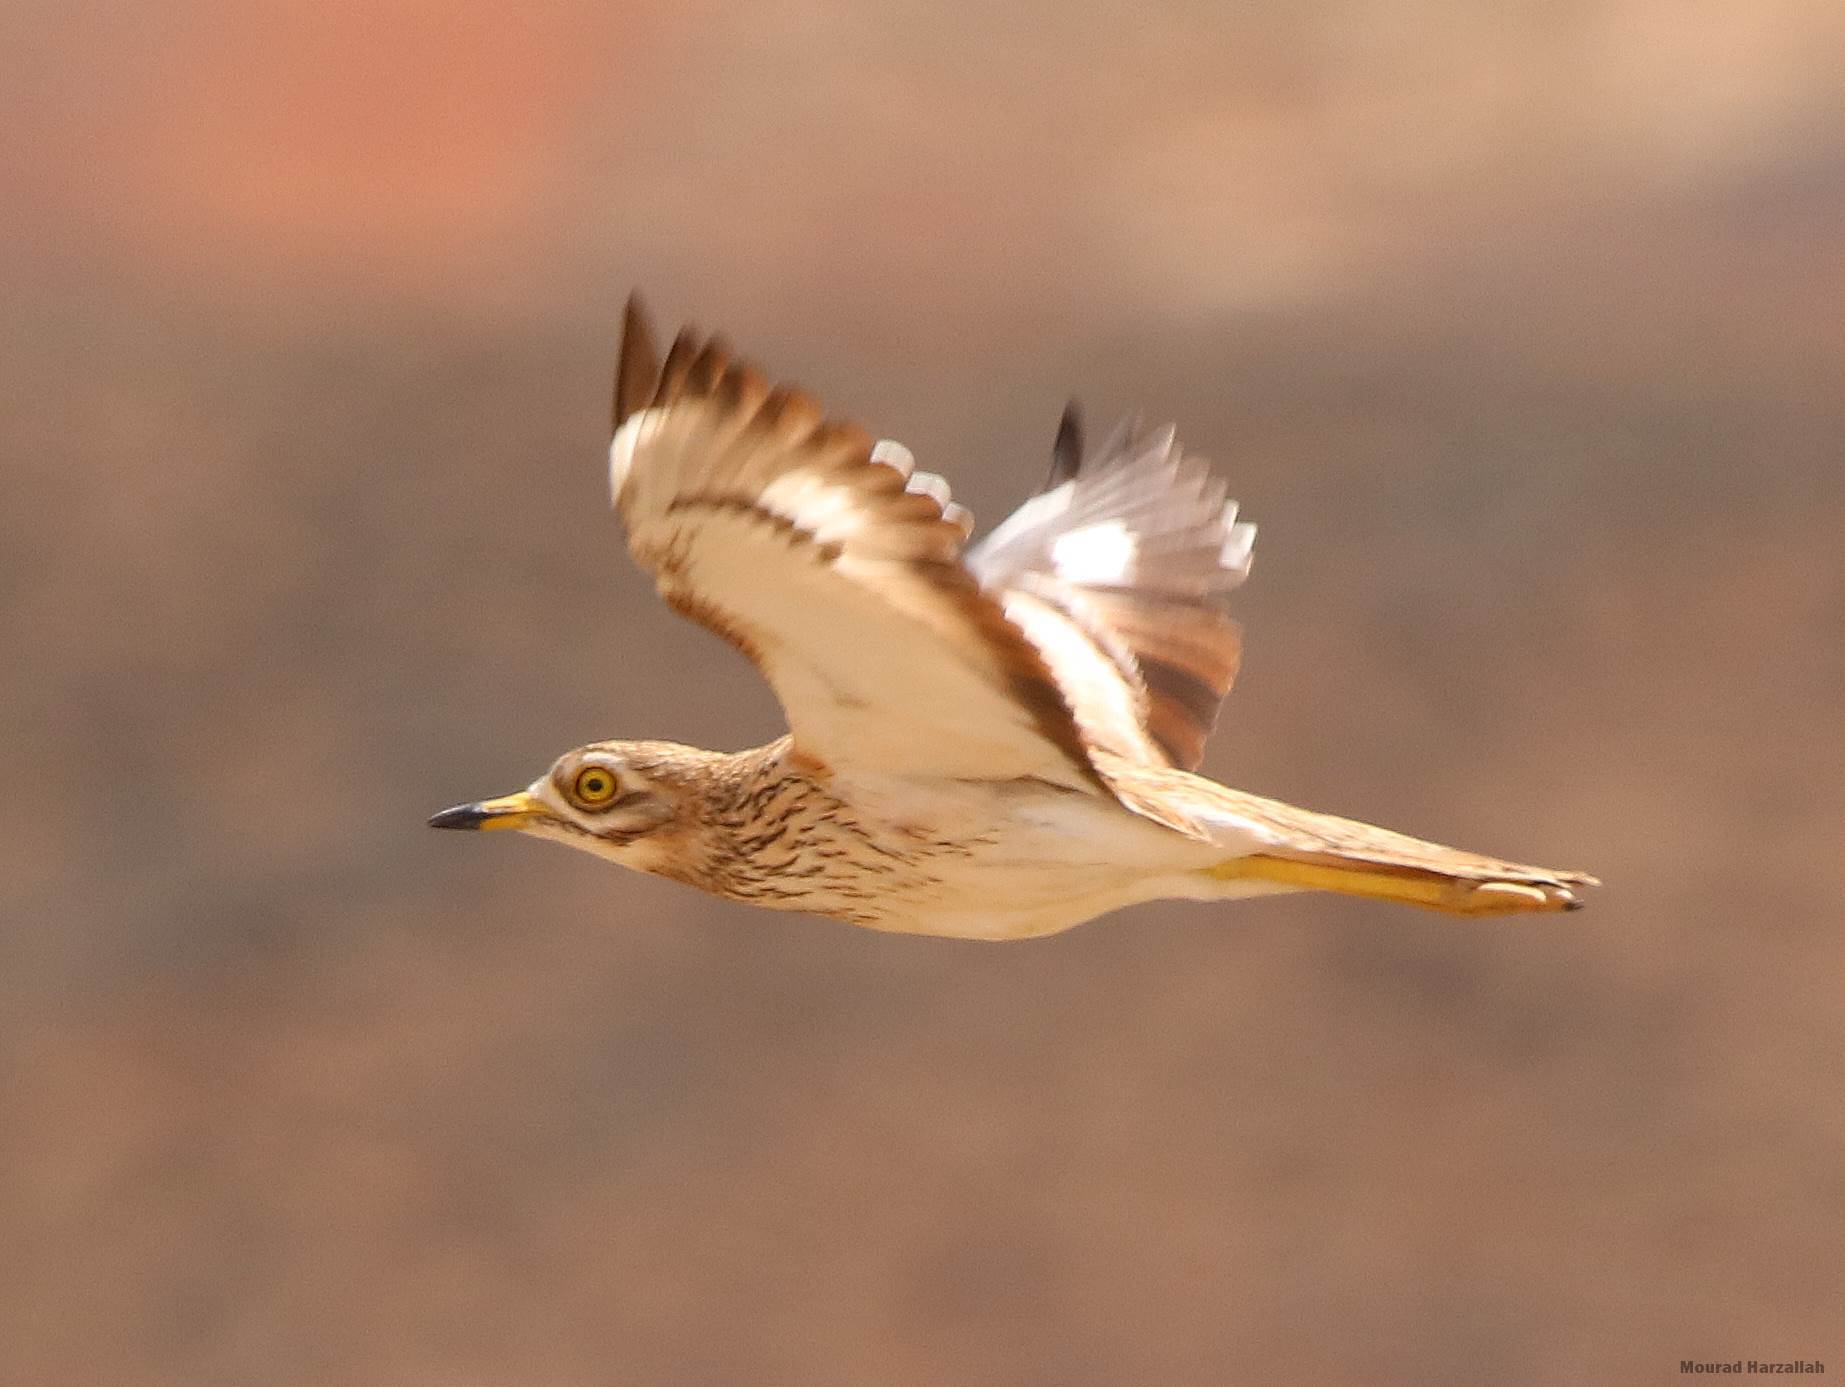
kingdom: Animalia
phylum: Chordata
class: Aves
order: Charadriiformes
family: Burhinidae
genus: Burhinus
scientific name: Burhinus oedicnemus
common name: Eurasian stone-curlew
